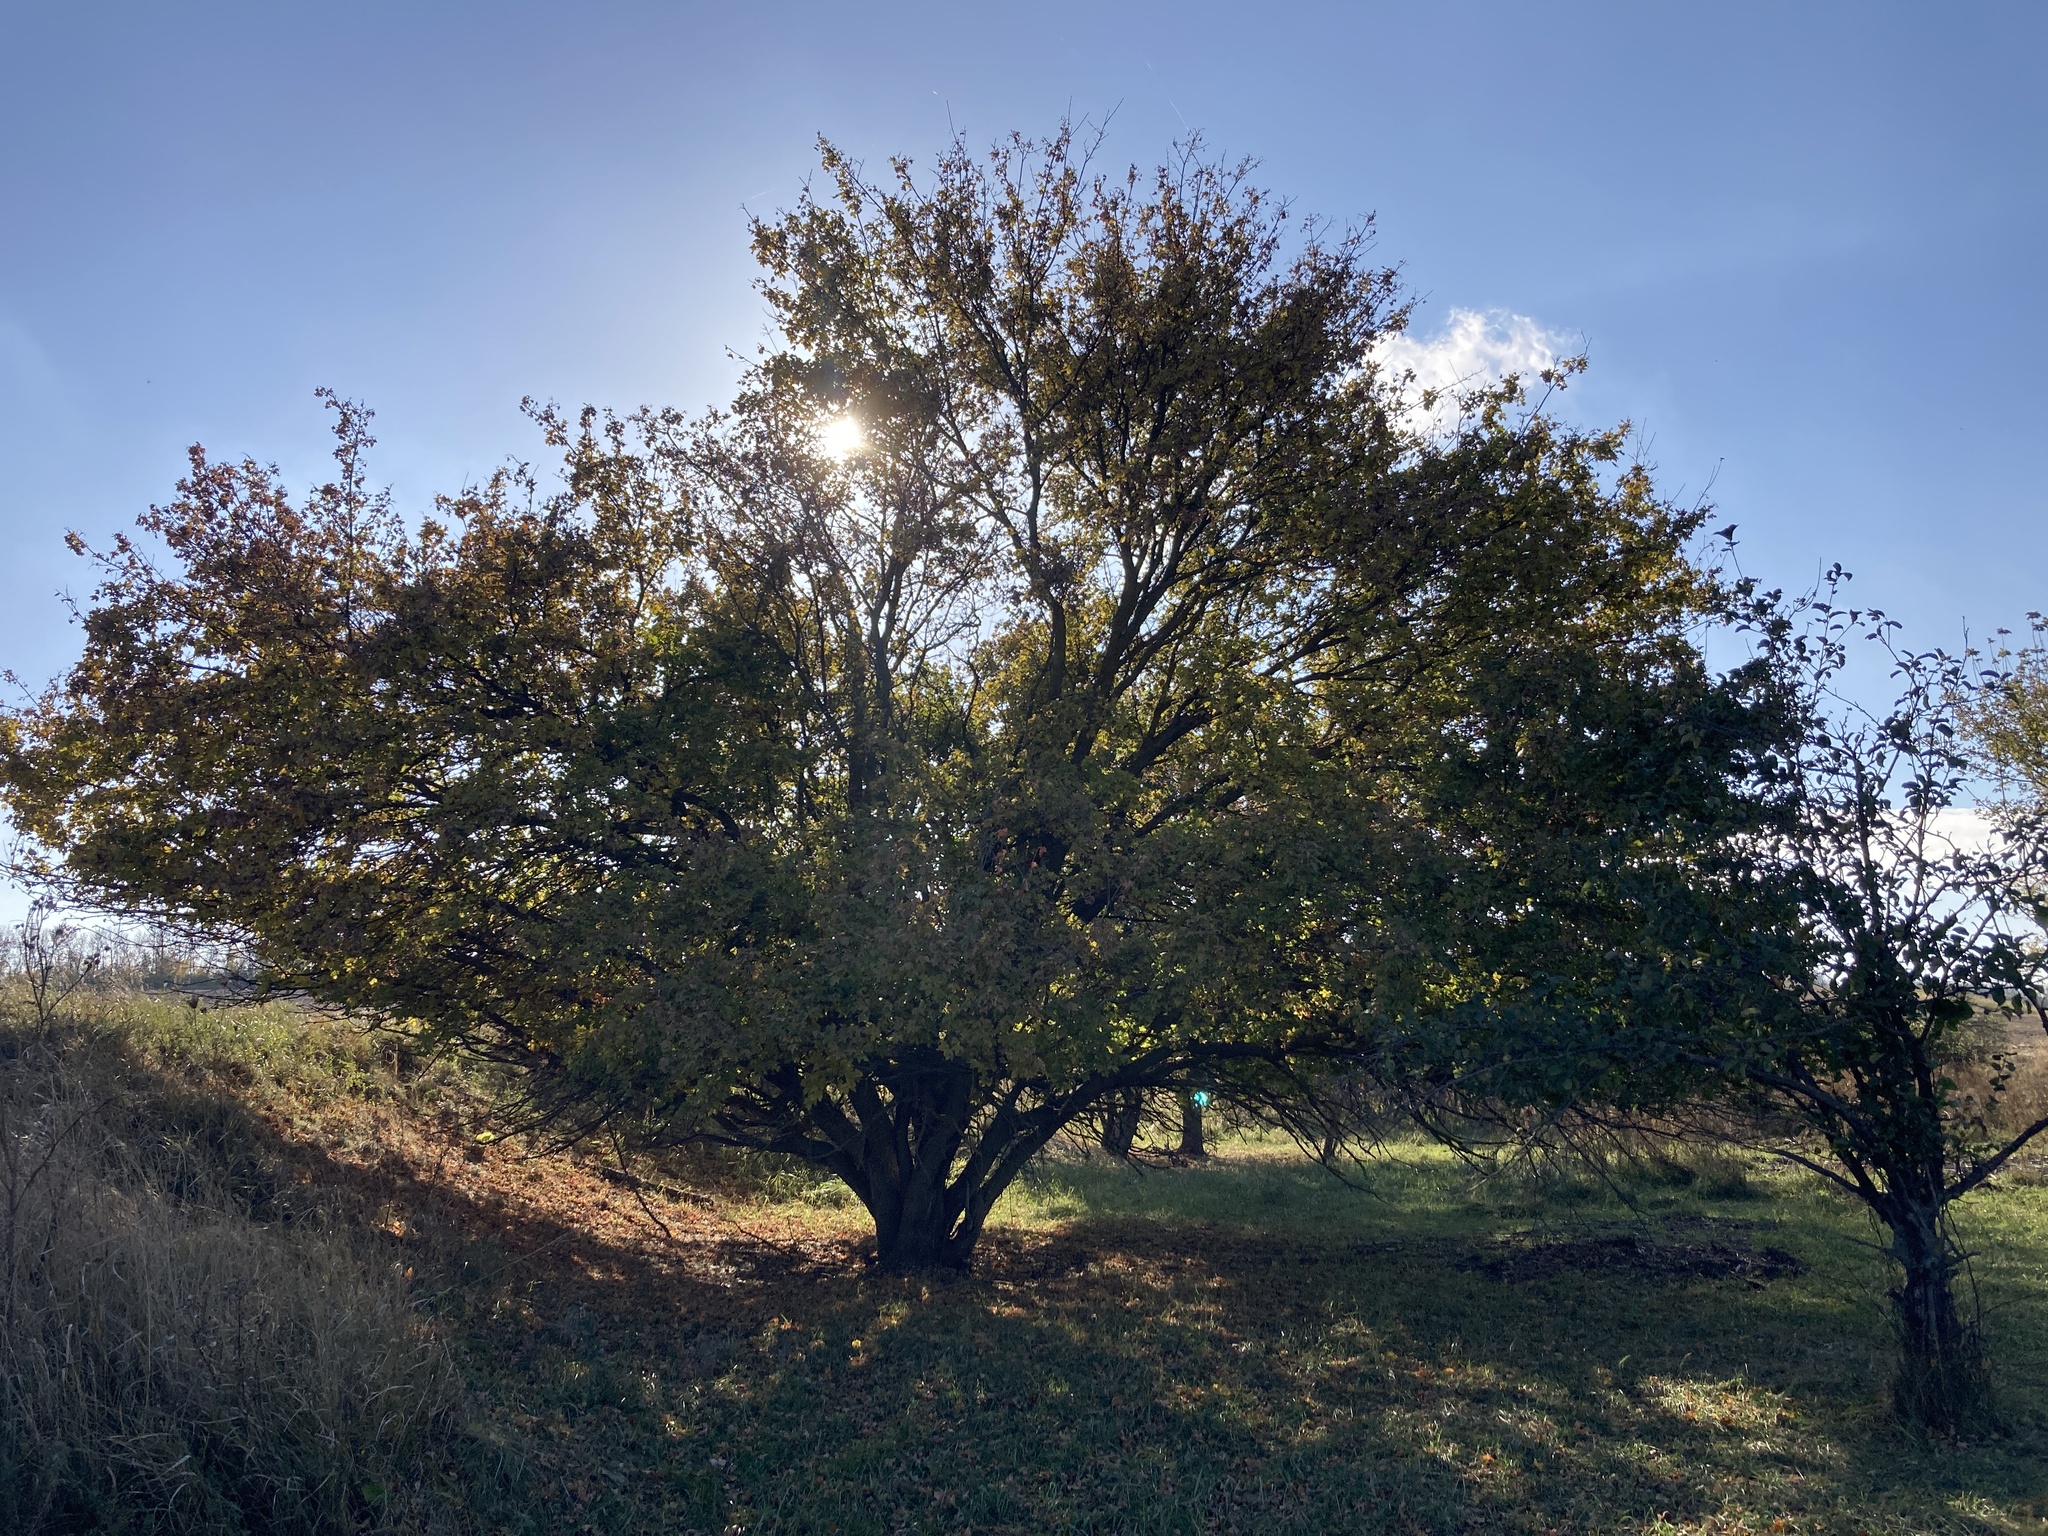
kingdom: Plantae
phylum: Tracheophyta
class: Magnoliopsida
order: Sapindales
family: Sapindaceae
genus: Acer
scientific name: Acer campestre
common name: Field maple
